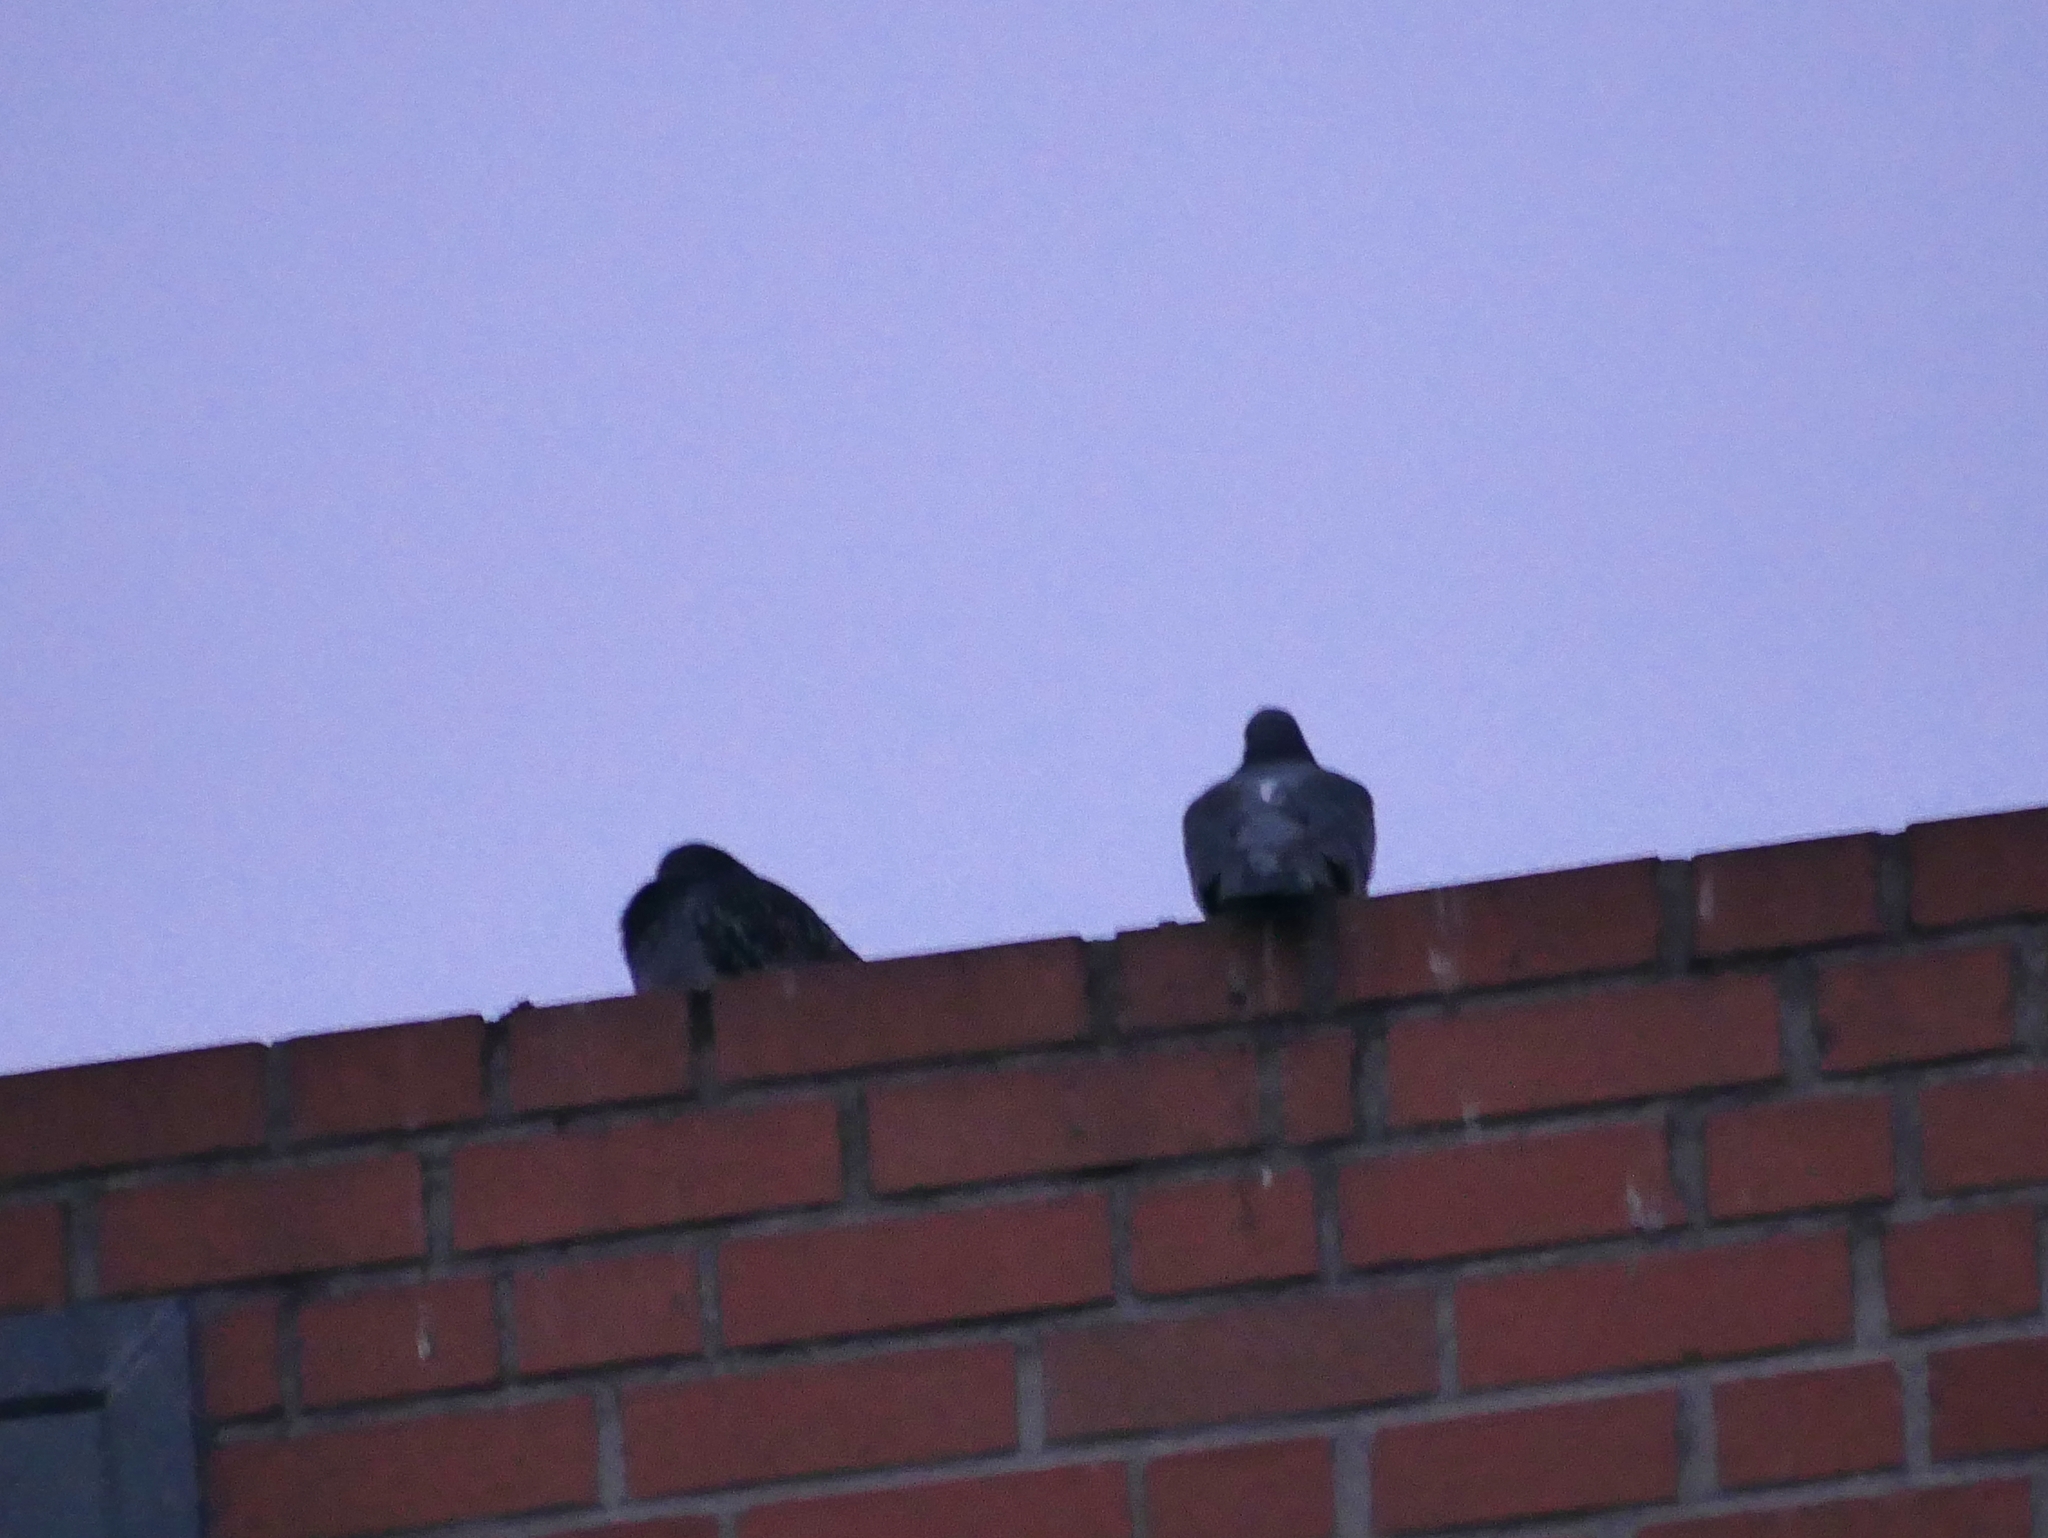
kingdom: Animalia
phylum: Chordata
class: Aves
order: Columbiformes
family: Columbidae
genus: Columba
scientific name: Columba livia
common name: Rock pigeon
